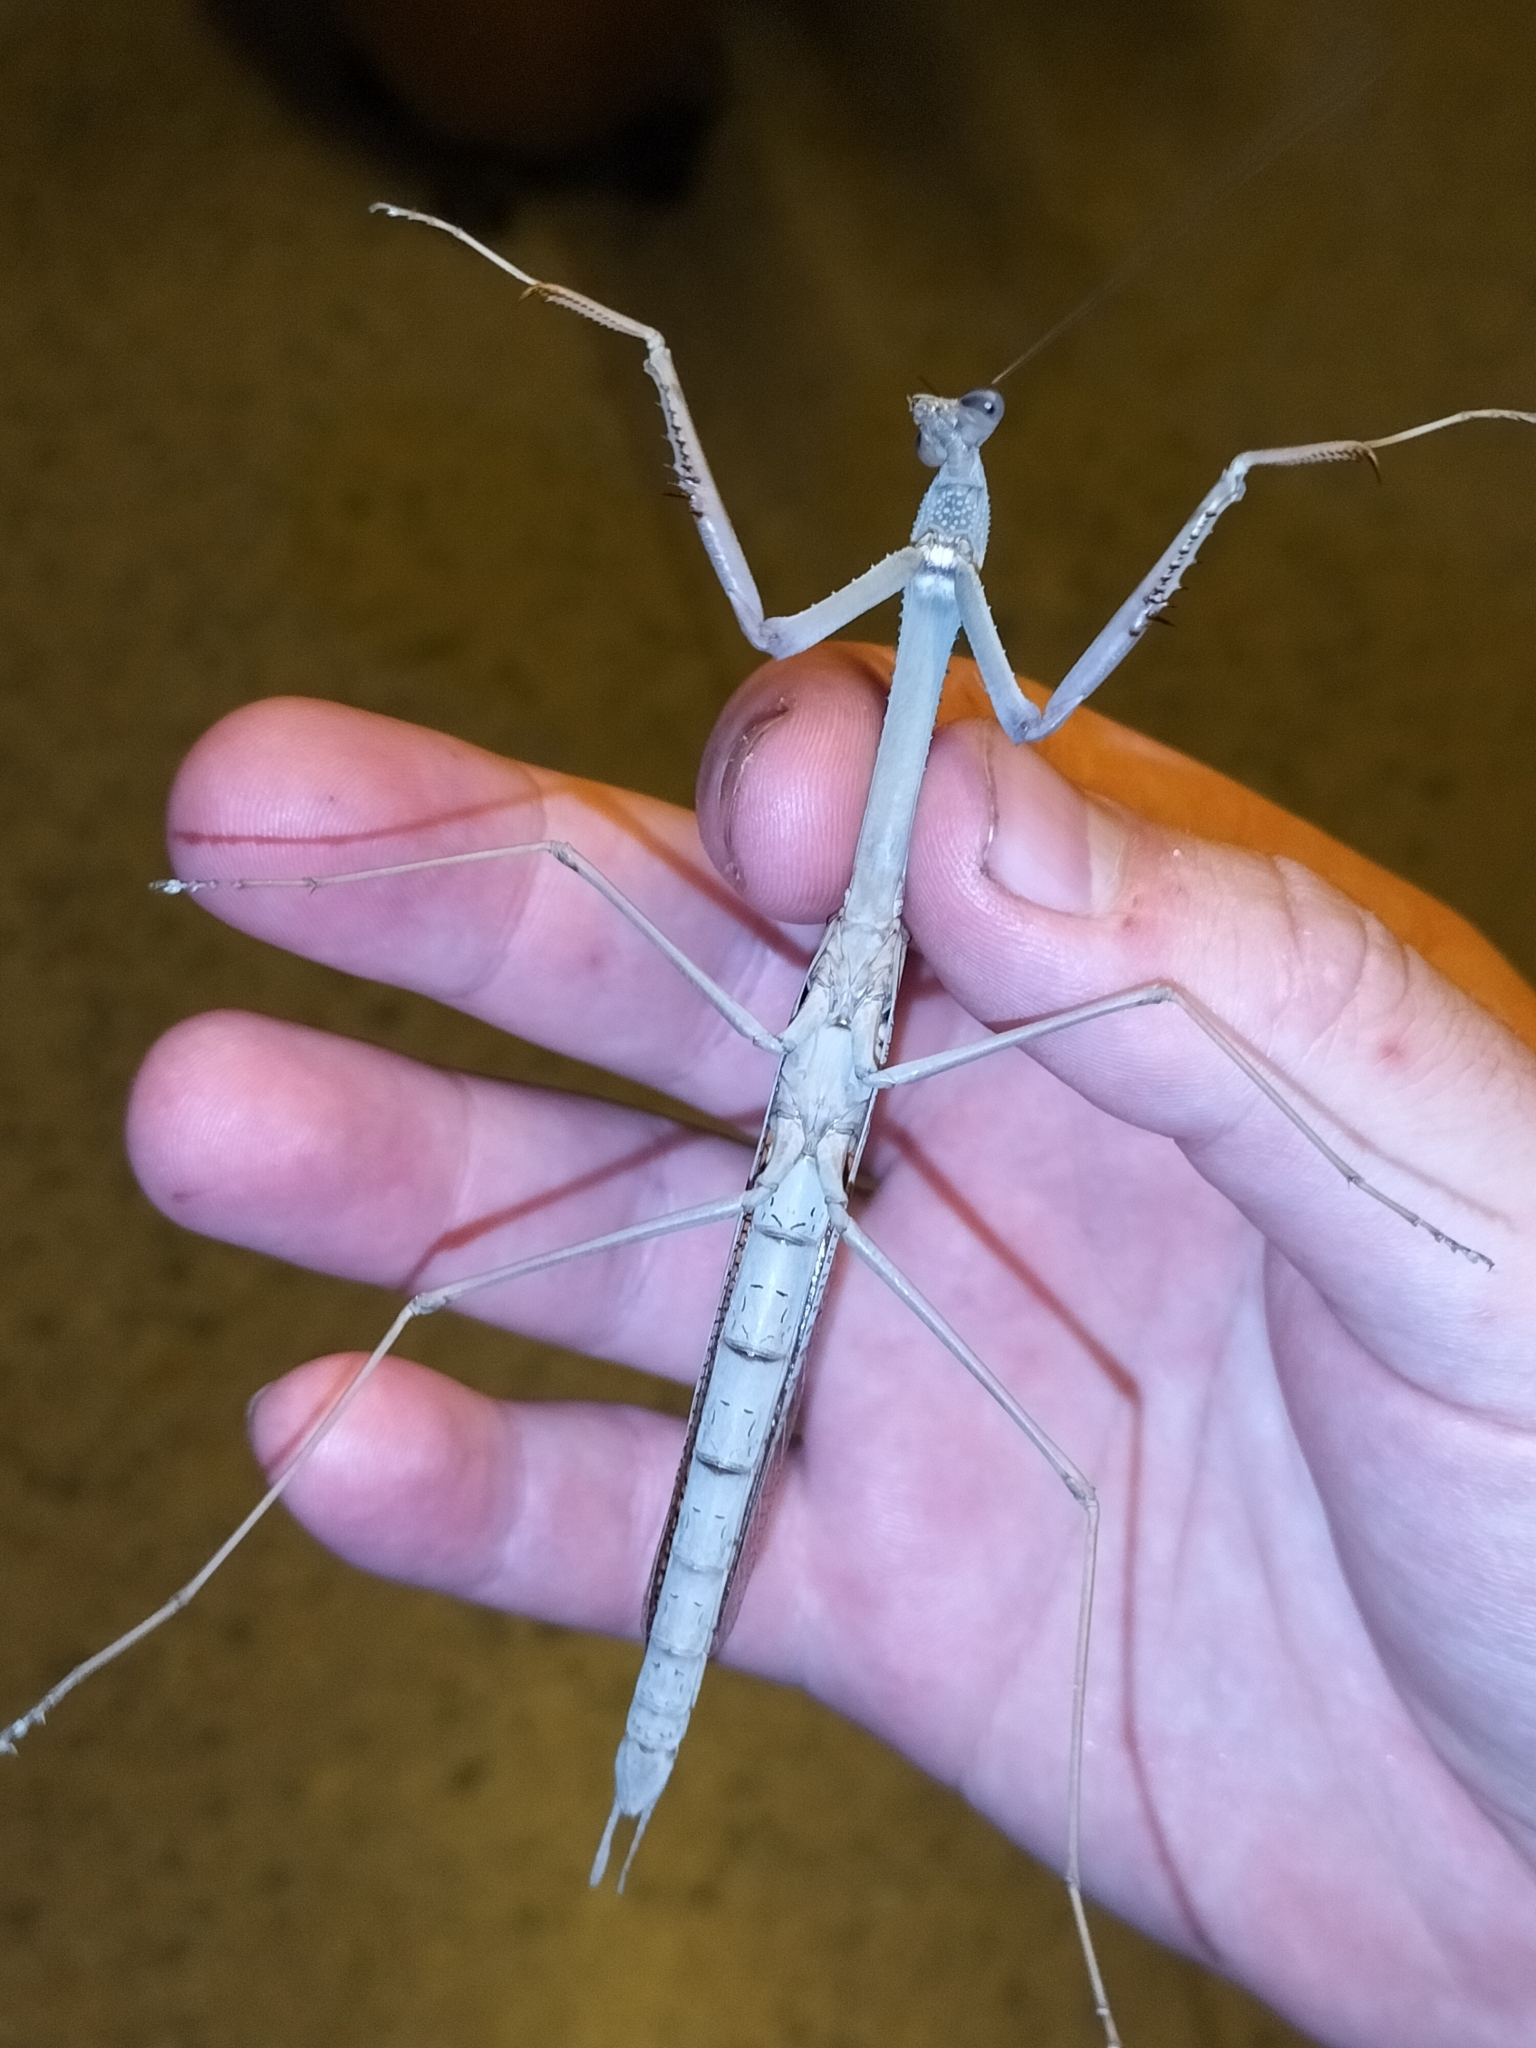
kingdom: Animalia
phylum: Arthropoda
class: Insecta
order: Mantodea
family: Mantidae
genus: Archimantis
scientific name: Archimantis armata
